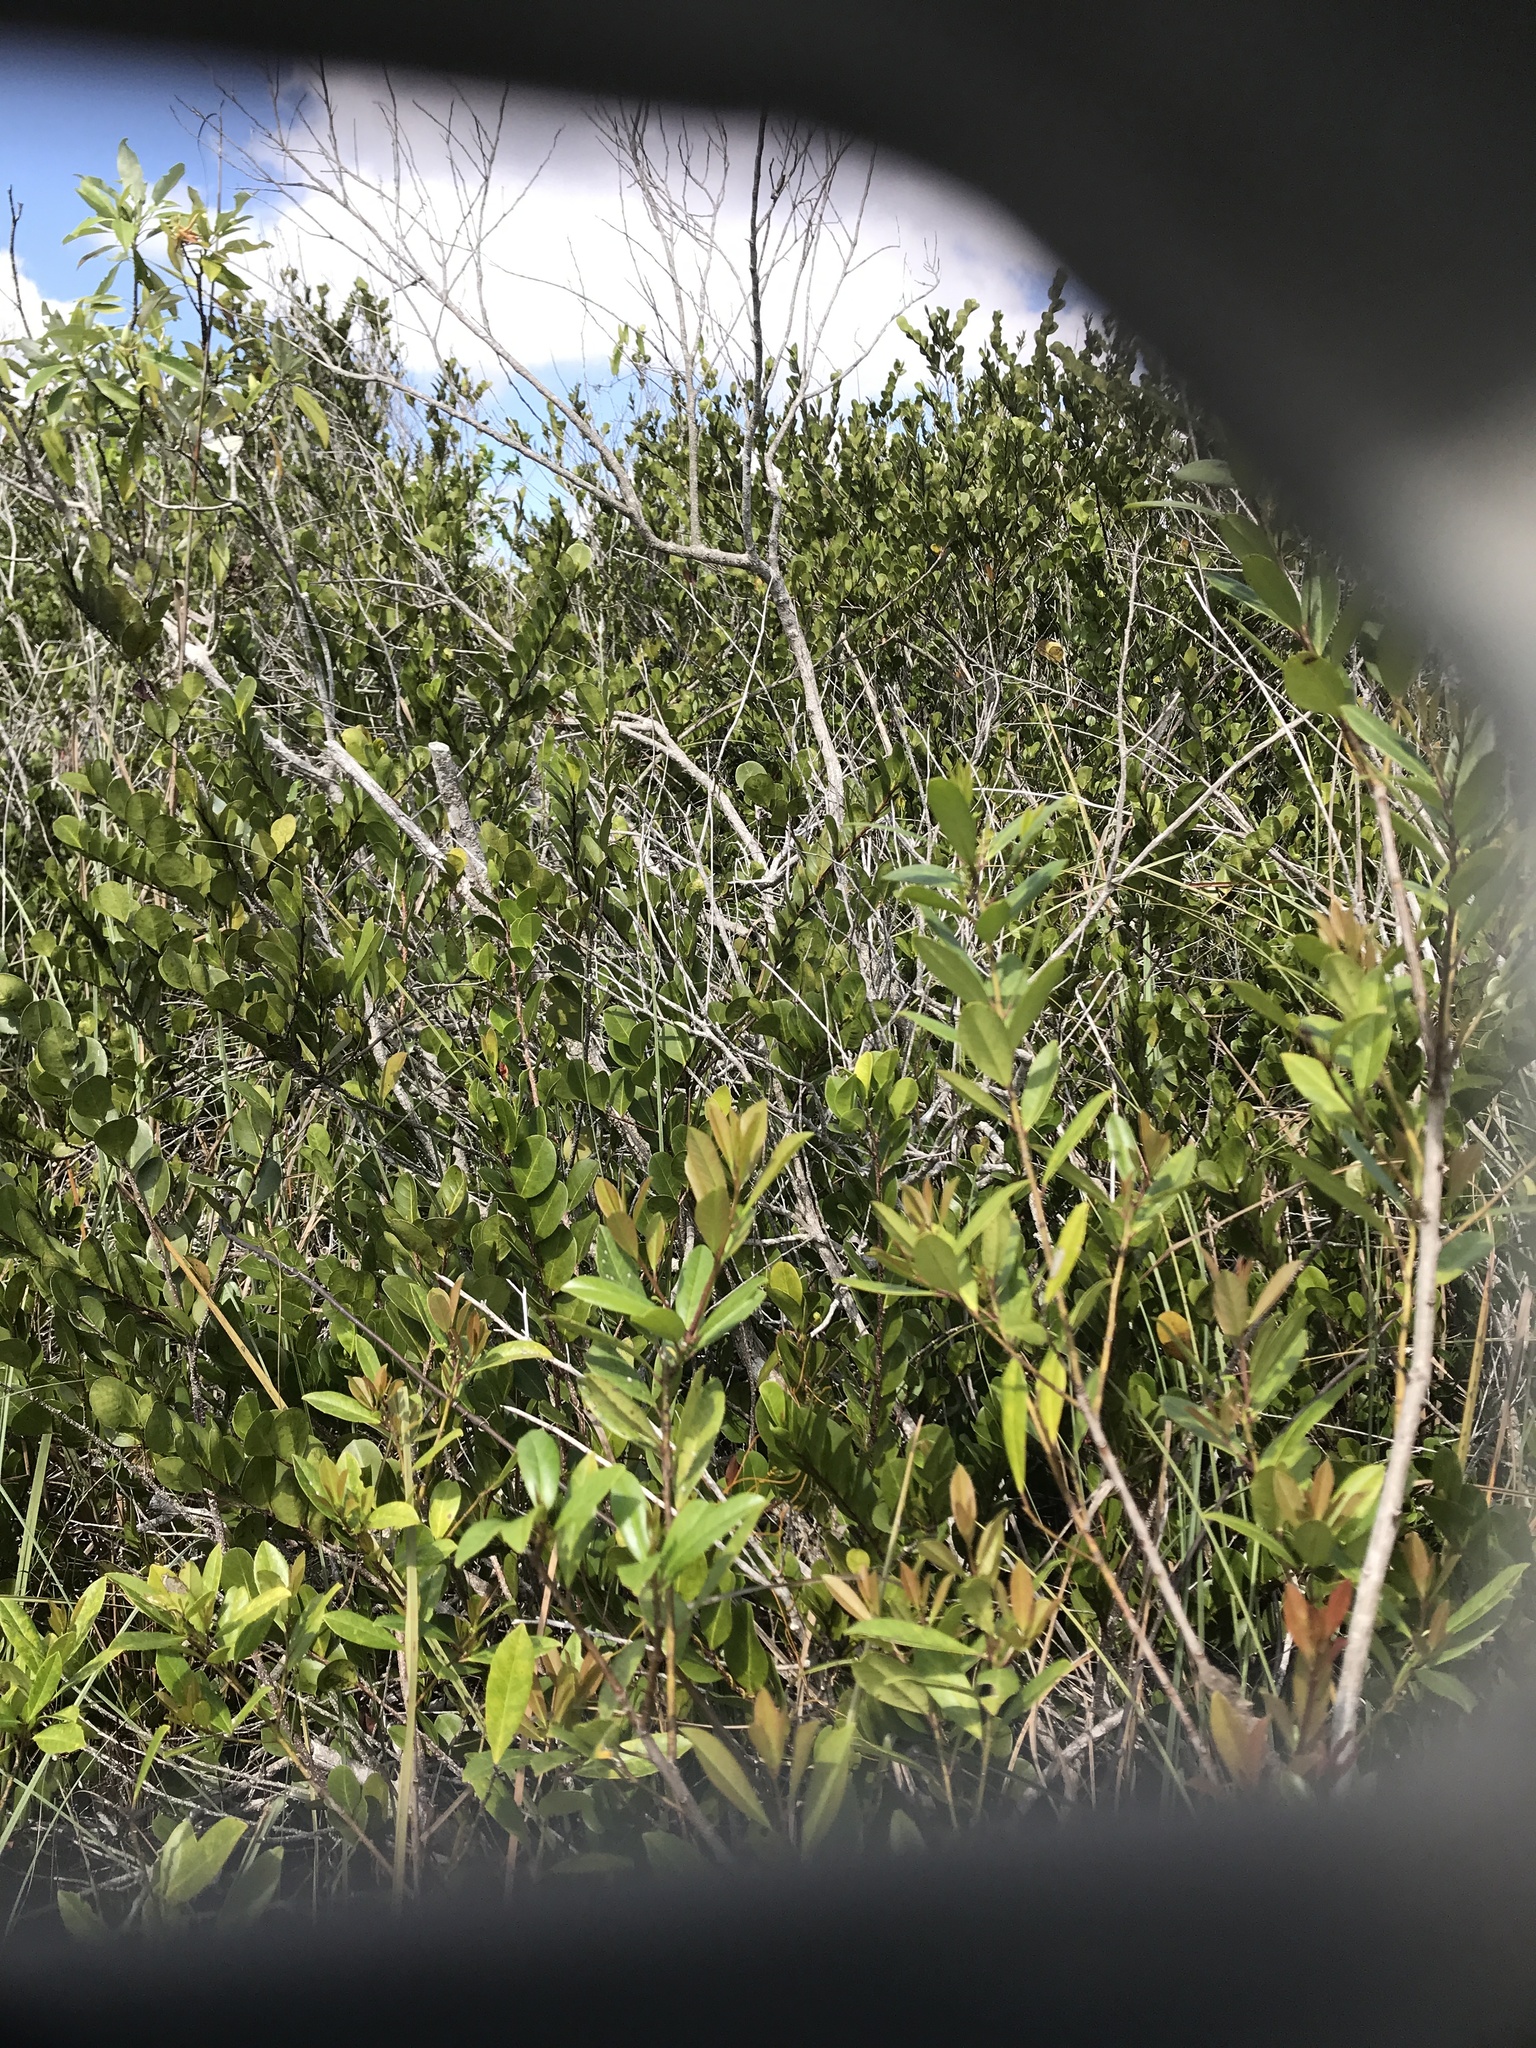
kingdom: Plantae
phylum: Tracheophyta
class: Magnoliopsida
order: Malpighiales
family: Chrysobalanaceae
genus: Chrysobalanus
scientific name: Chrysobalanus icaco
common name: Coco plum
